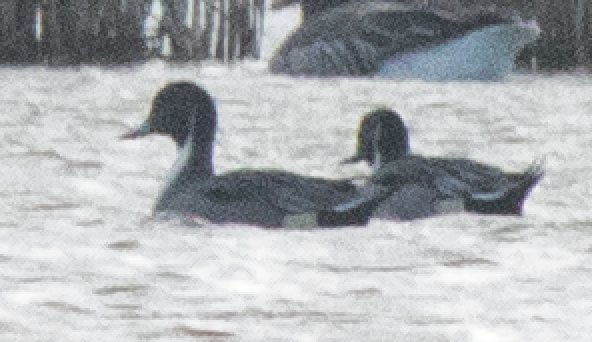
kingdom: Animalia
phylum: Chordata
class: Aves
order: Anseriformes
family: Anatidae
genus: Anas
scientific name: Anas acuta
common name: Northern pintail
